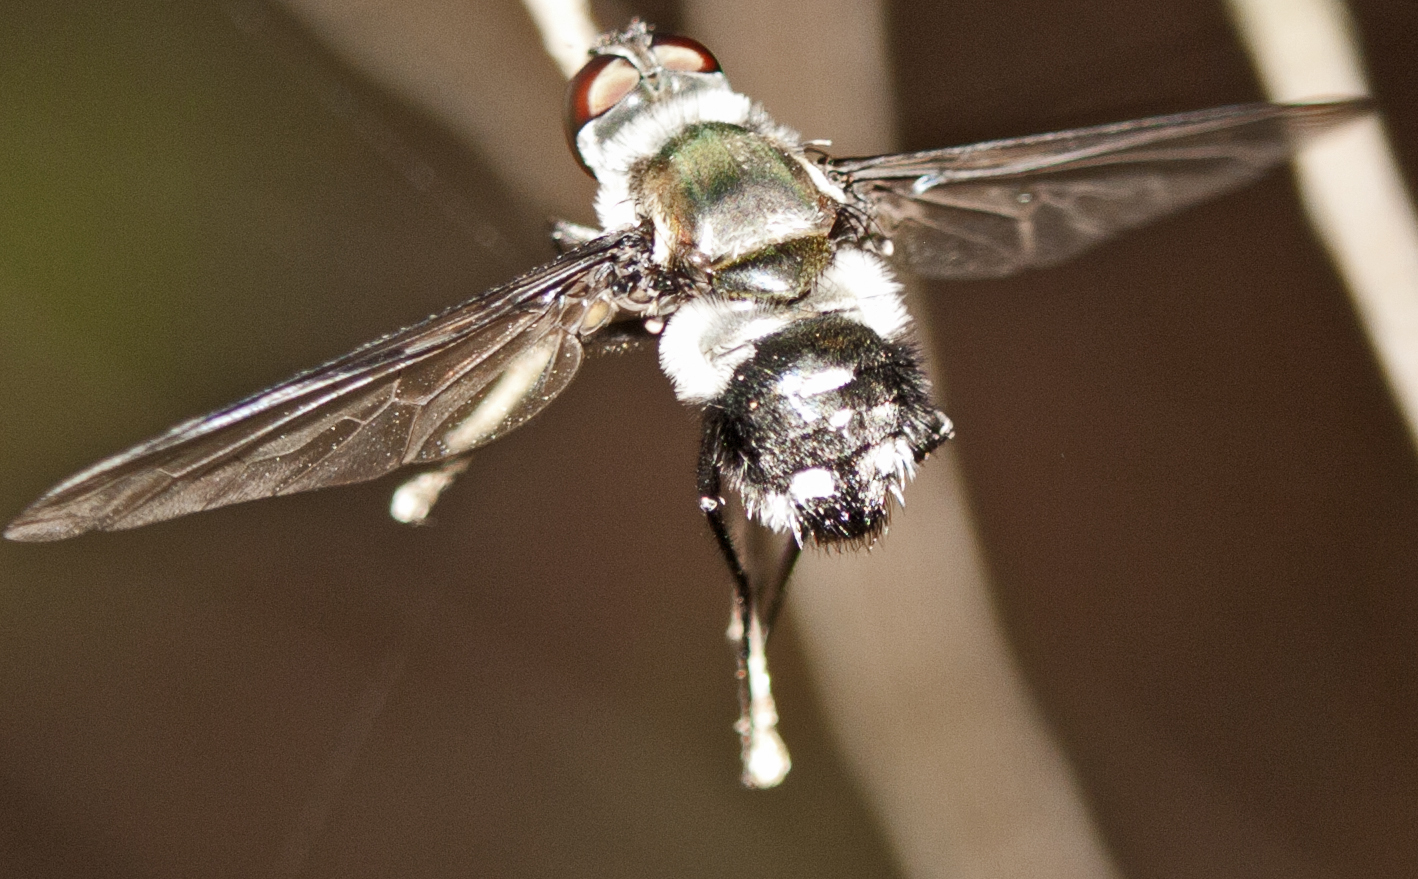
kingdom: Animalia
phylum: Arthropoda
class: Insecta
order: Diptera
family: Bombyliidae
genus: Thraxan
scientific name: Thraxan
